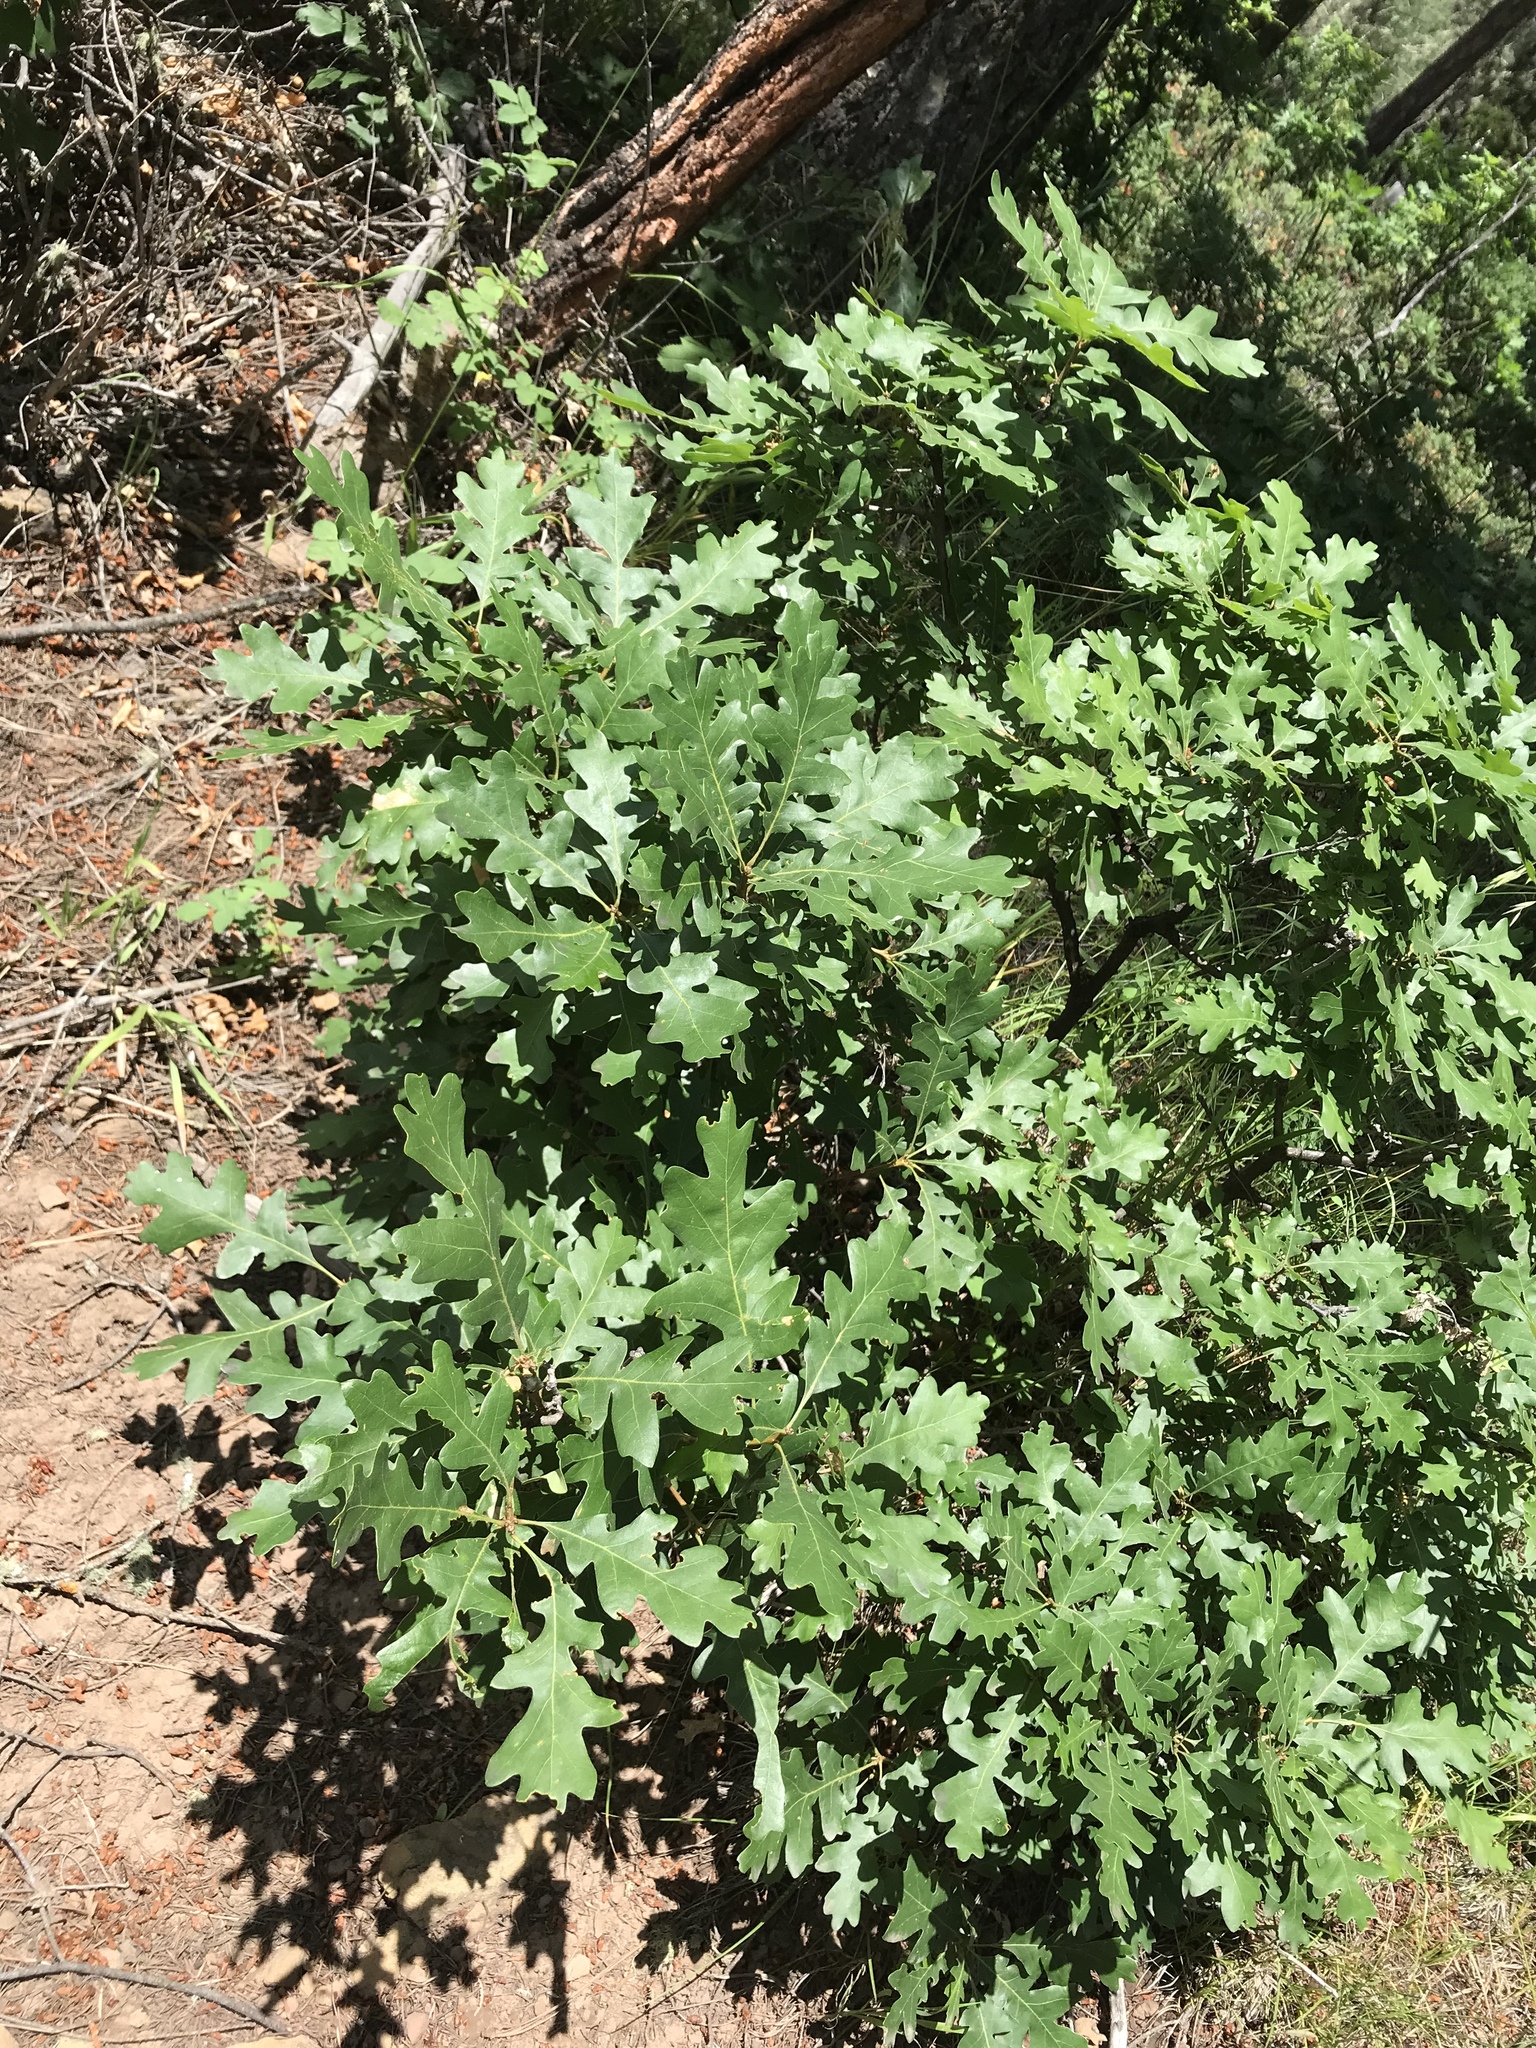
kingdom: Plantae
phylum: Tracheophyta
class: Magnoliopsida
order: Fagales
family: Fagaceae
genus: Quercus
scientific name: Quercus gambelii
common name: Gambel oak
